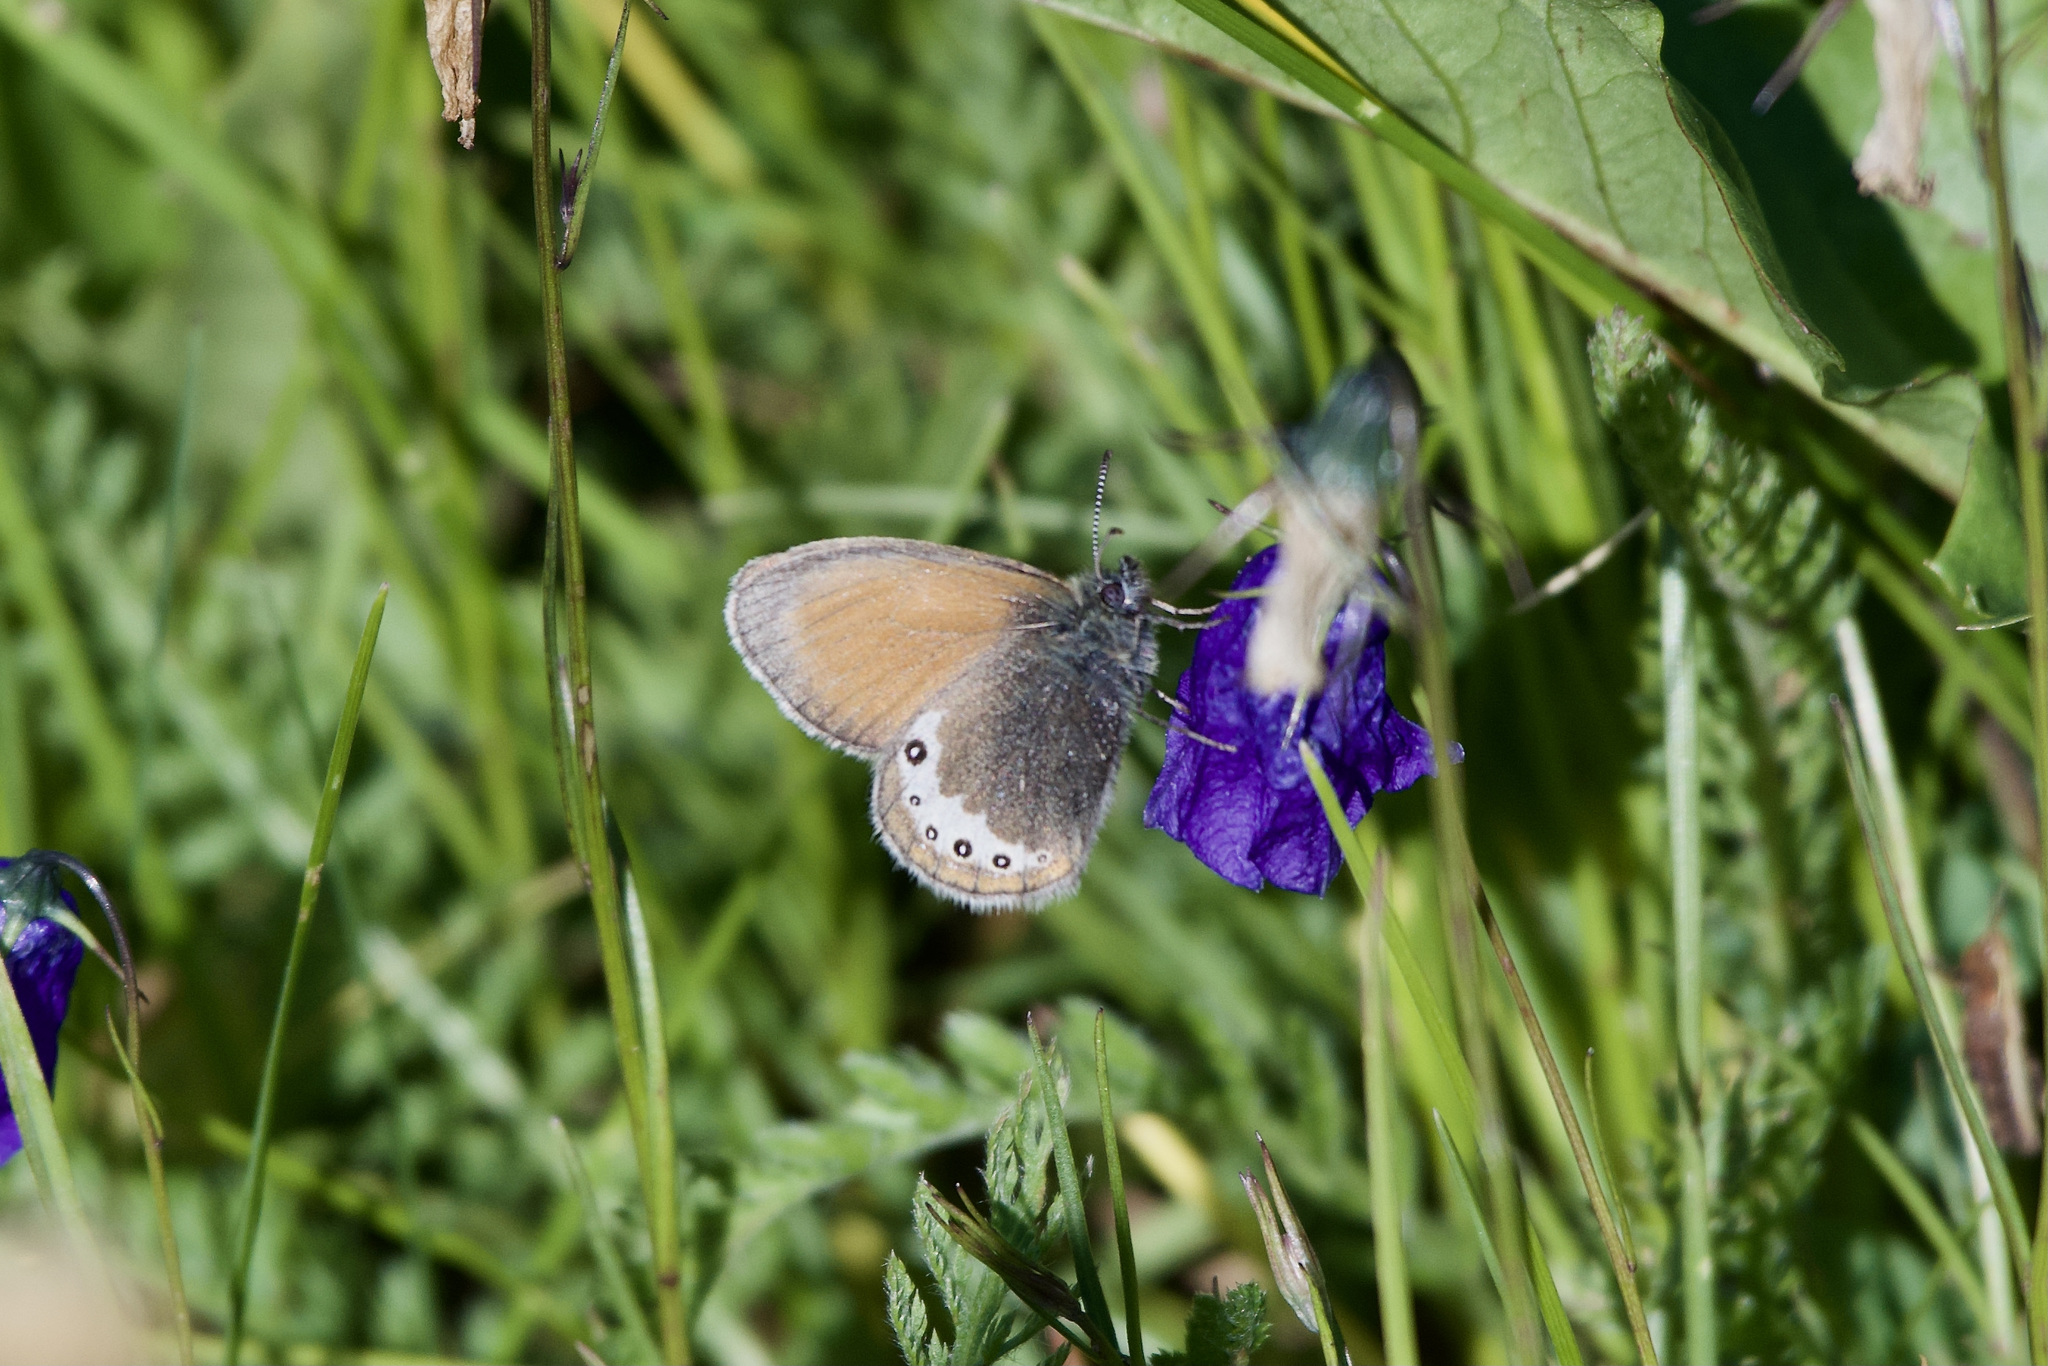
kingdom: Animalia
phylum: Arthropoda
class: Insecta
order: Lepidoptera
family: Nymphalidae
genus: Coenonympha
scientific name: Coenonympha
